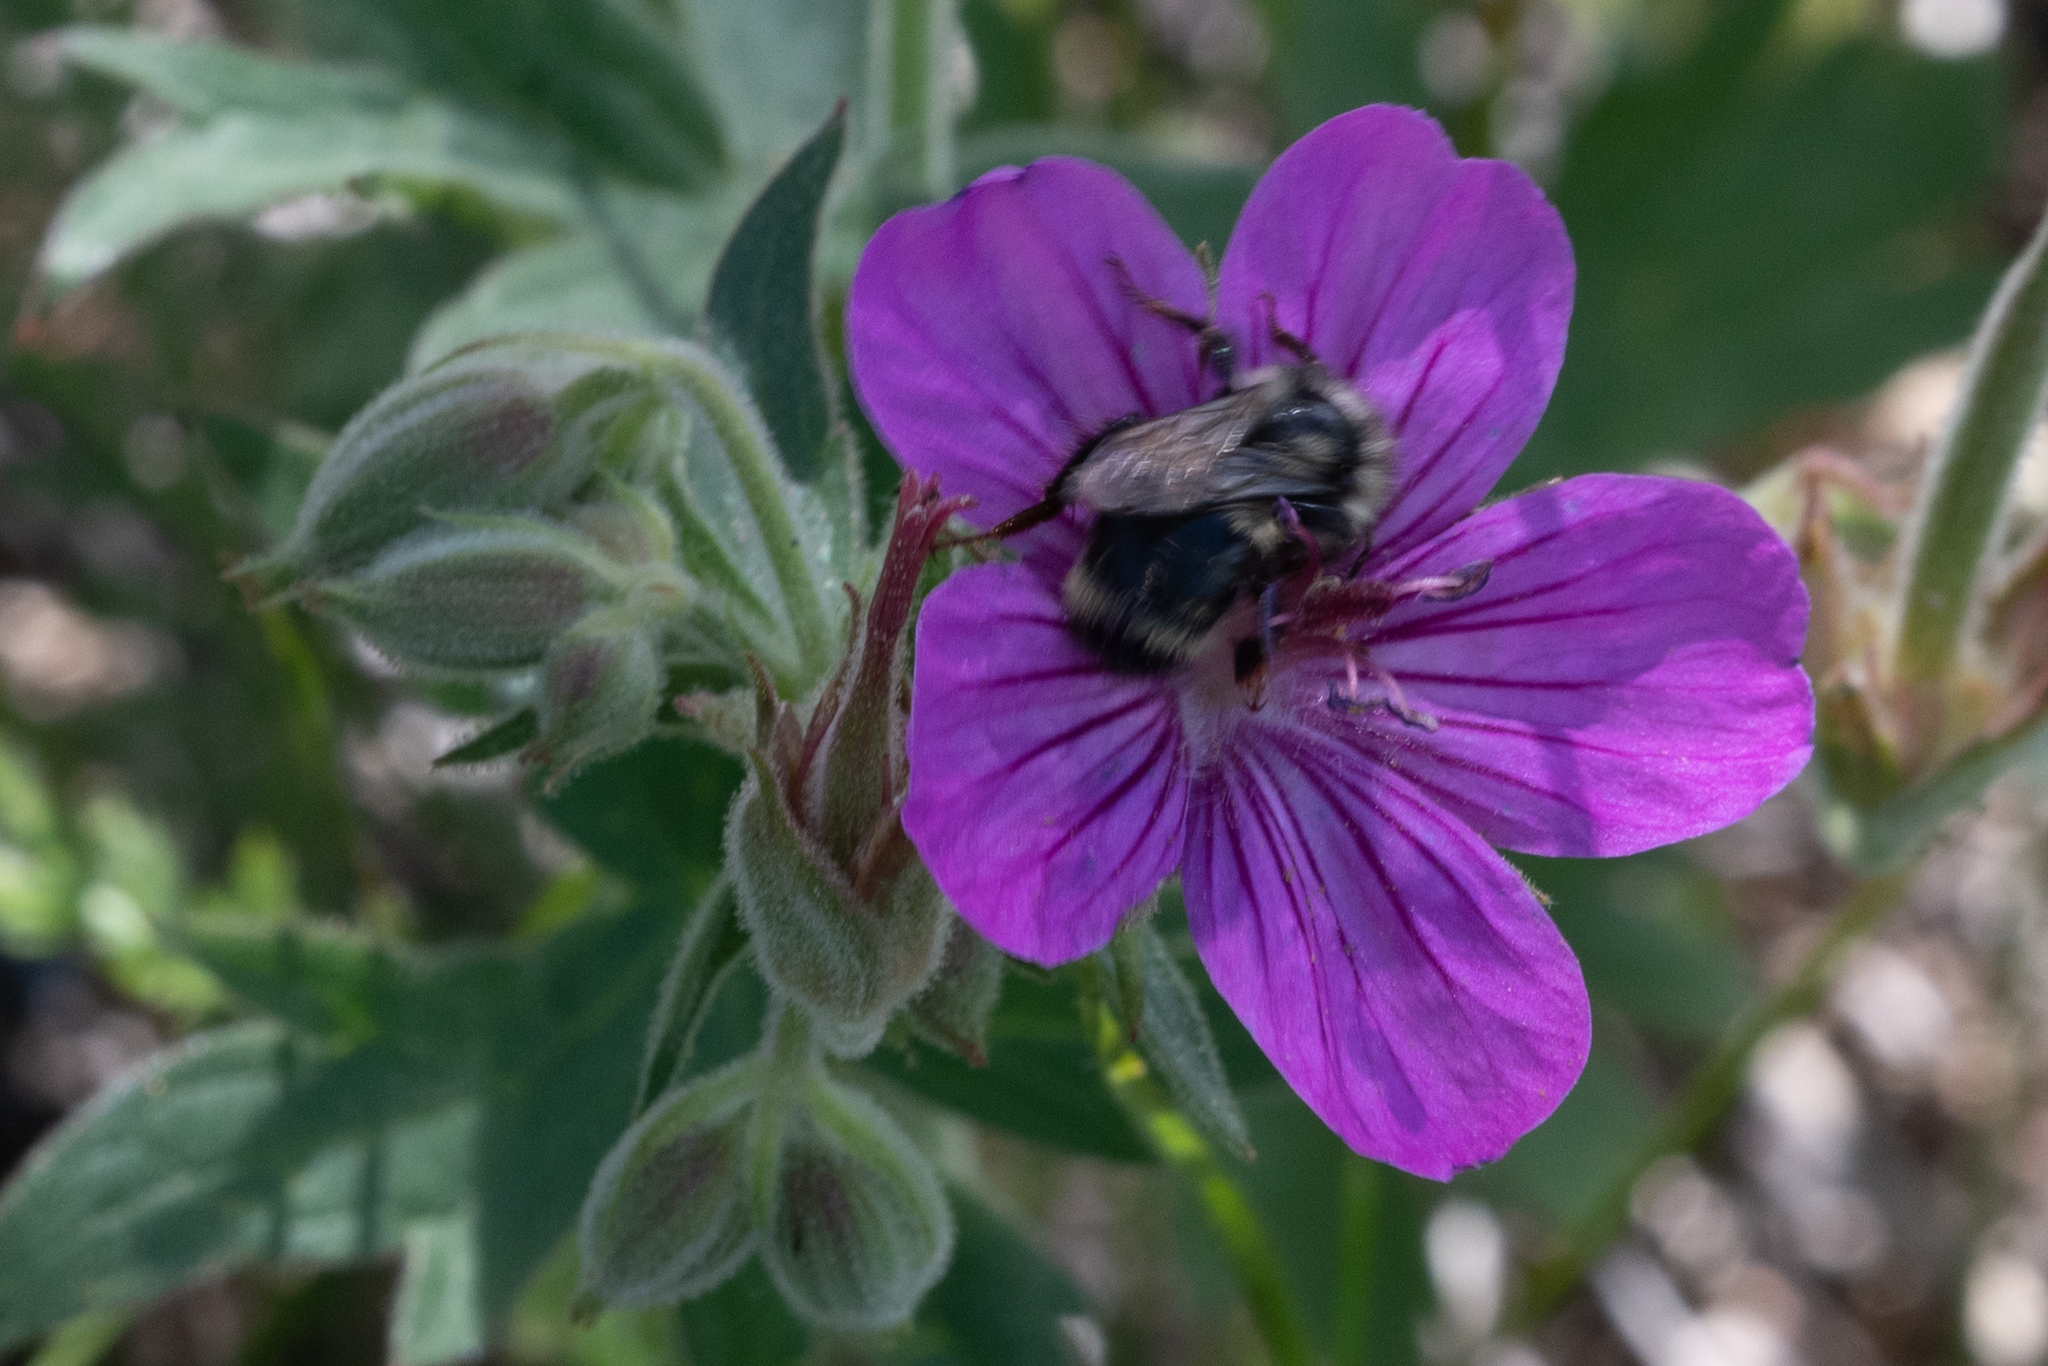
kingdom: Animalia
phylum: Arthropoda
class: Insecta
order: Hymenoptera
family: Apidae
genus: Bombus
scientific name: Bombus vancouverensis
